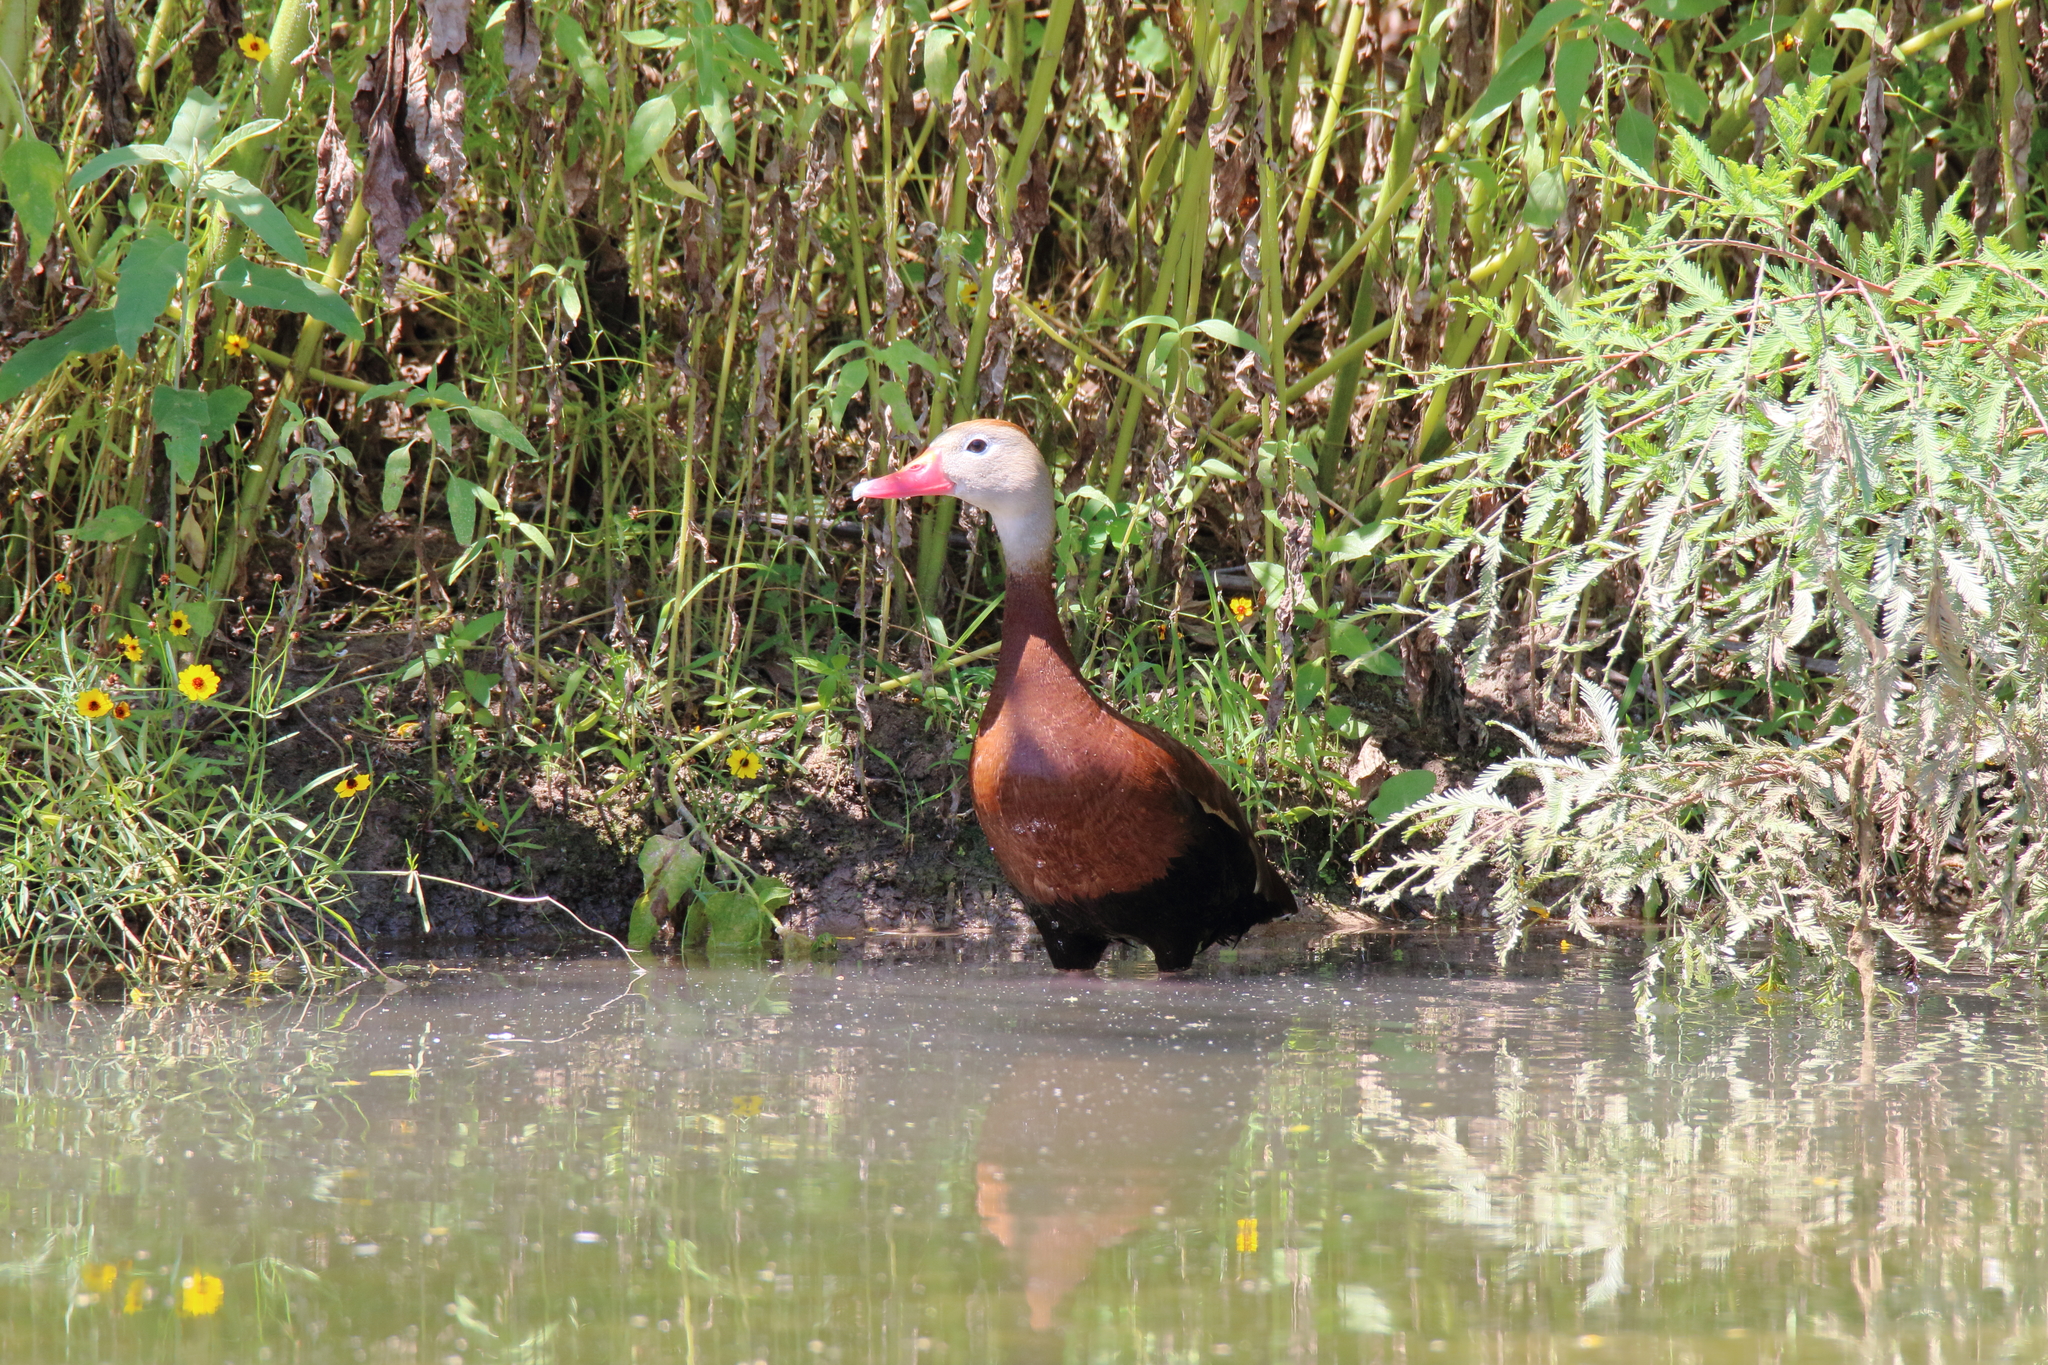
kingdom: Animalia
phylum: Chordata
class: Aves
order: Anseriformes
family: Anatidae
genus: Dendrocygna
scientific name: Dendrocygna autumnalis
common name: Black-bellied whistling duck
